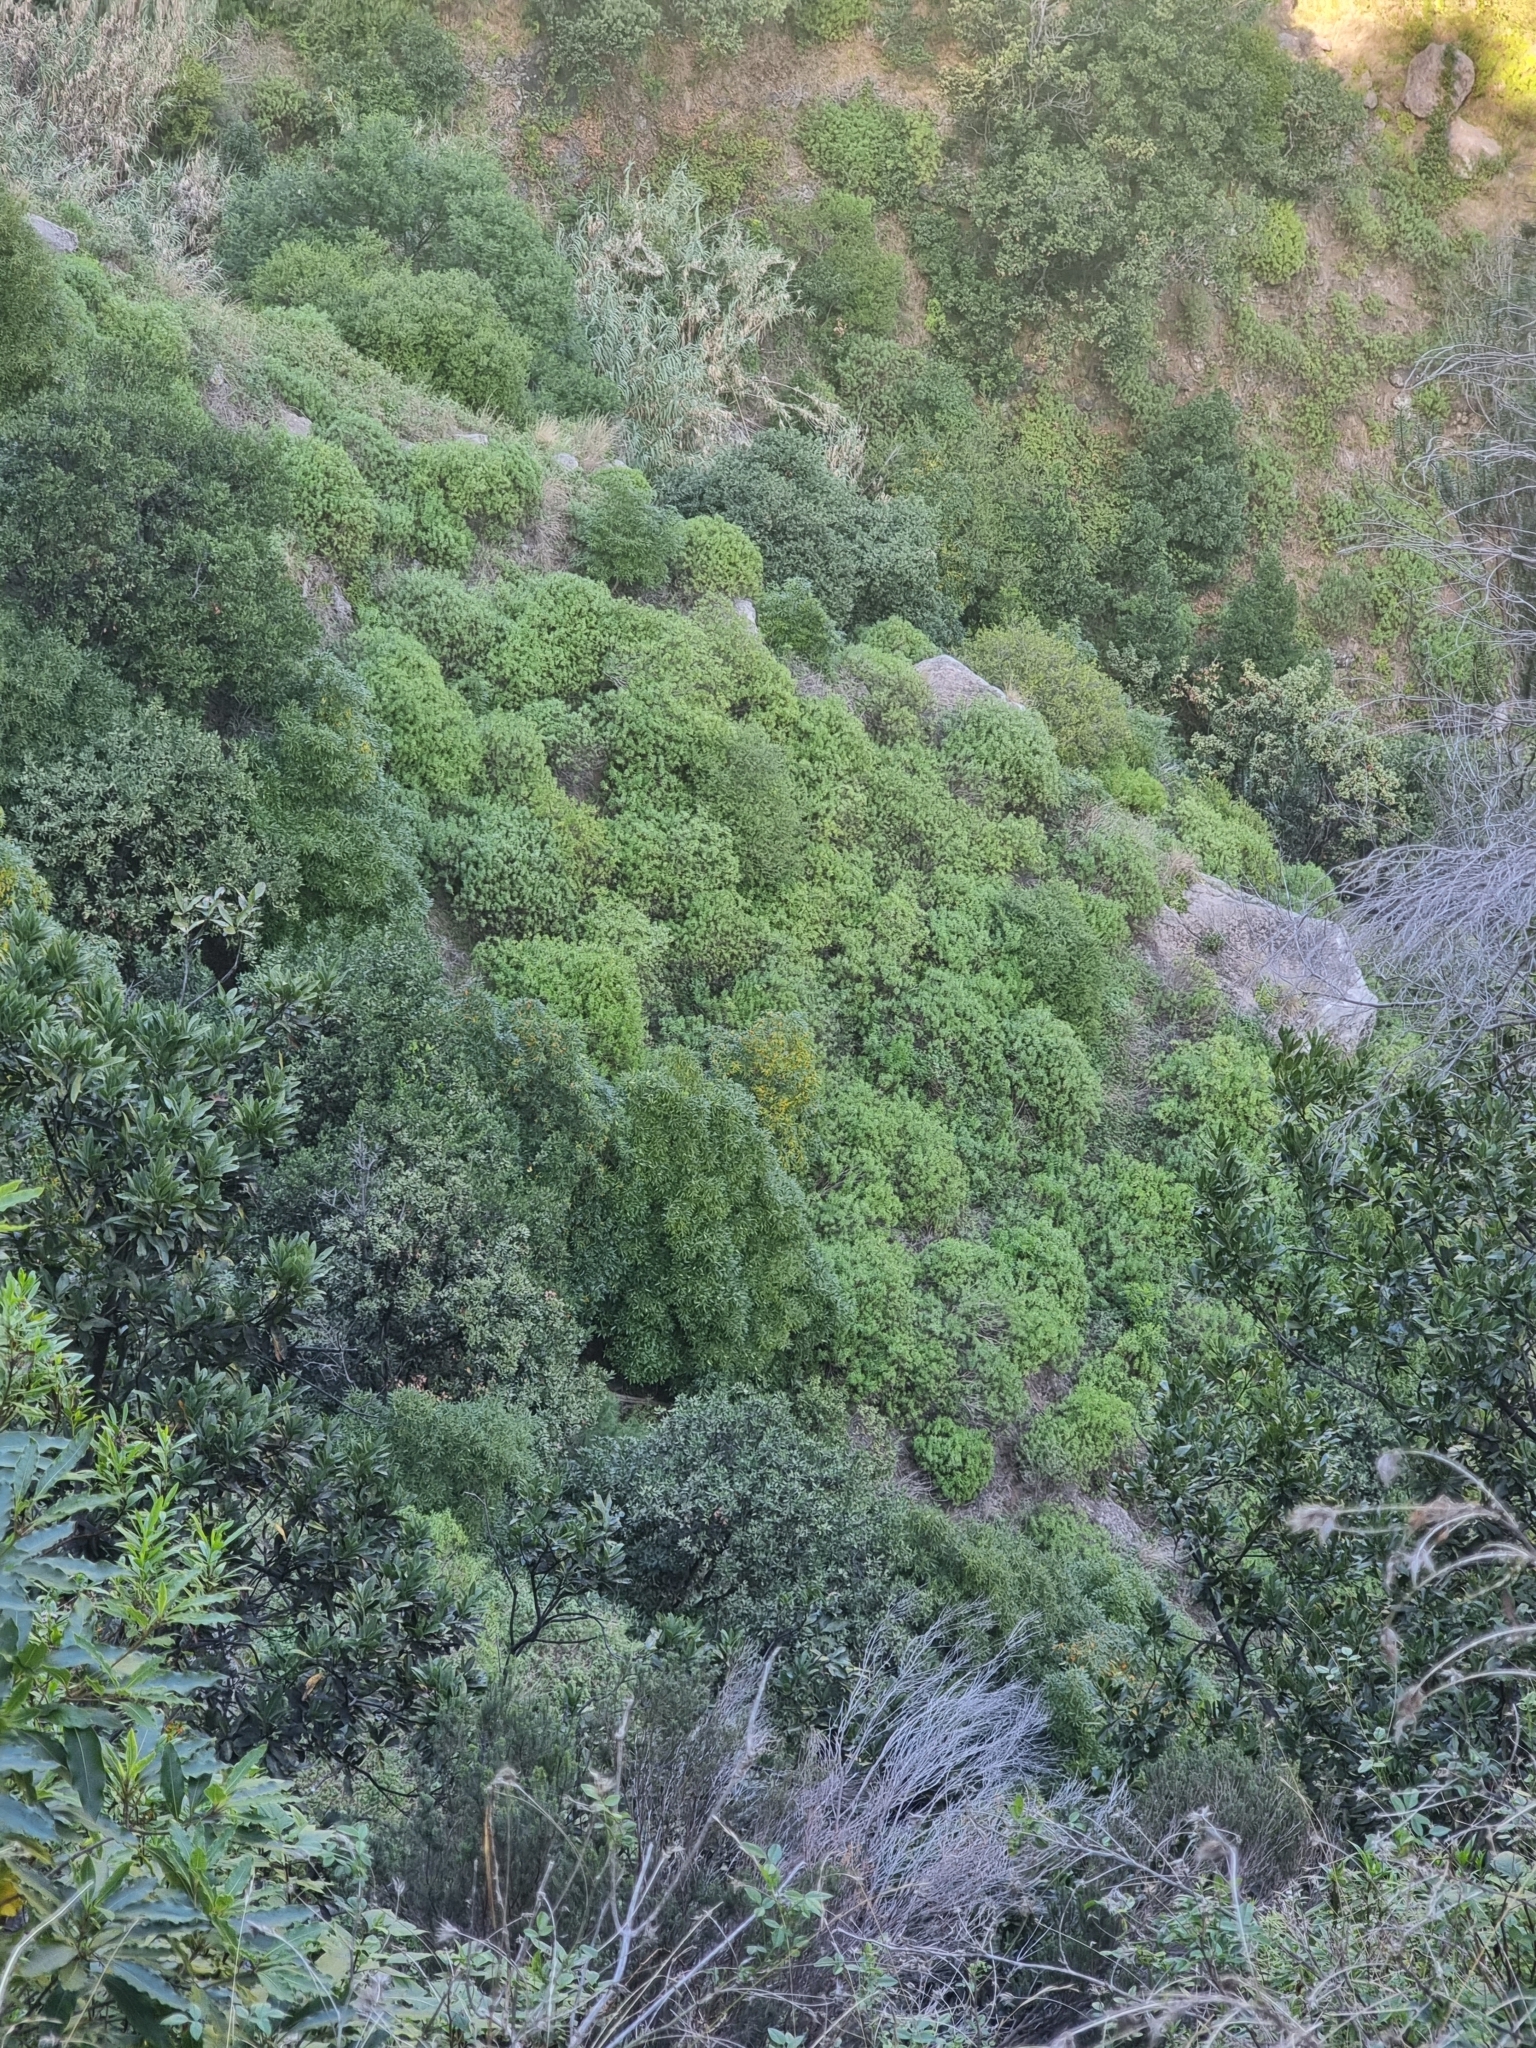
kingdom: Plantae
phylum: Tracheophyta
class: Magnoliopsida
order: Lamiales
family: Plantaginaceae
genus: Globularia
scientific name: Globularia salicina
